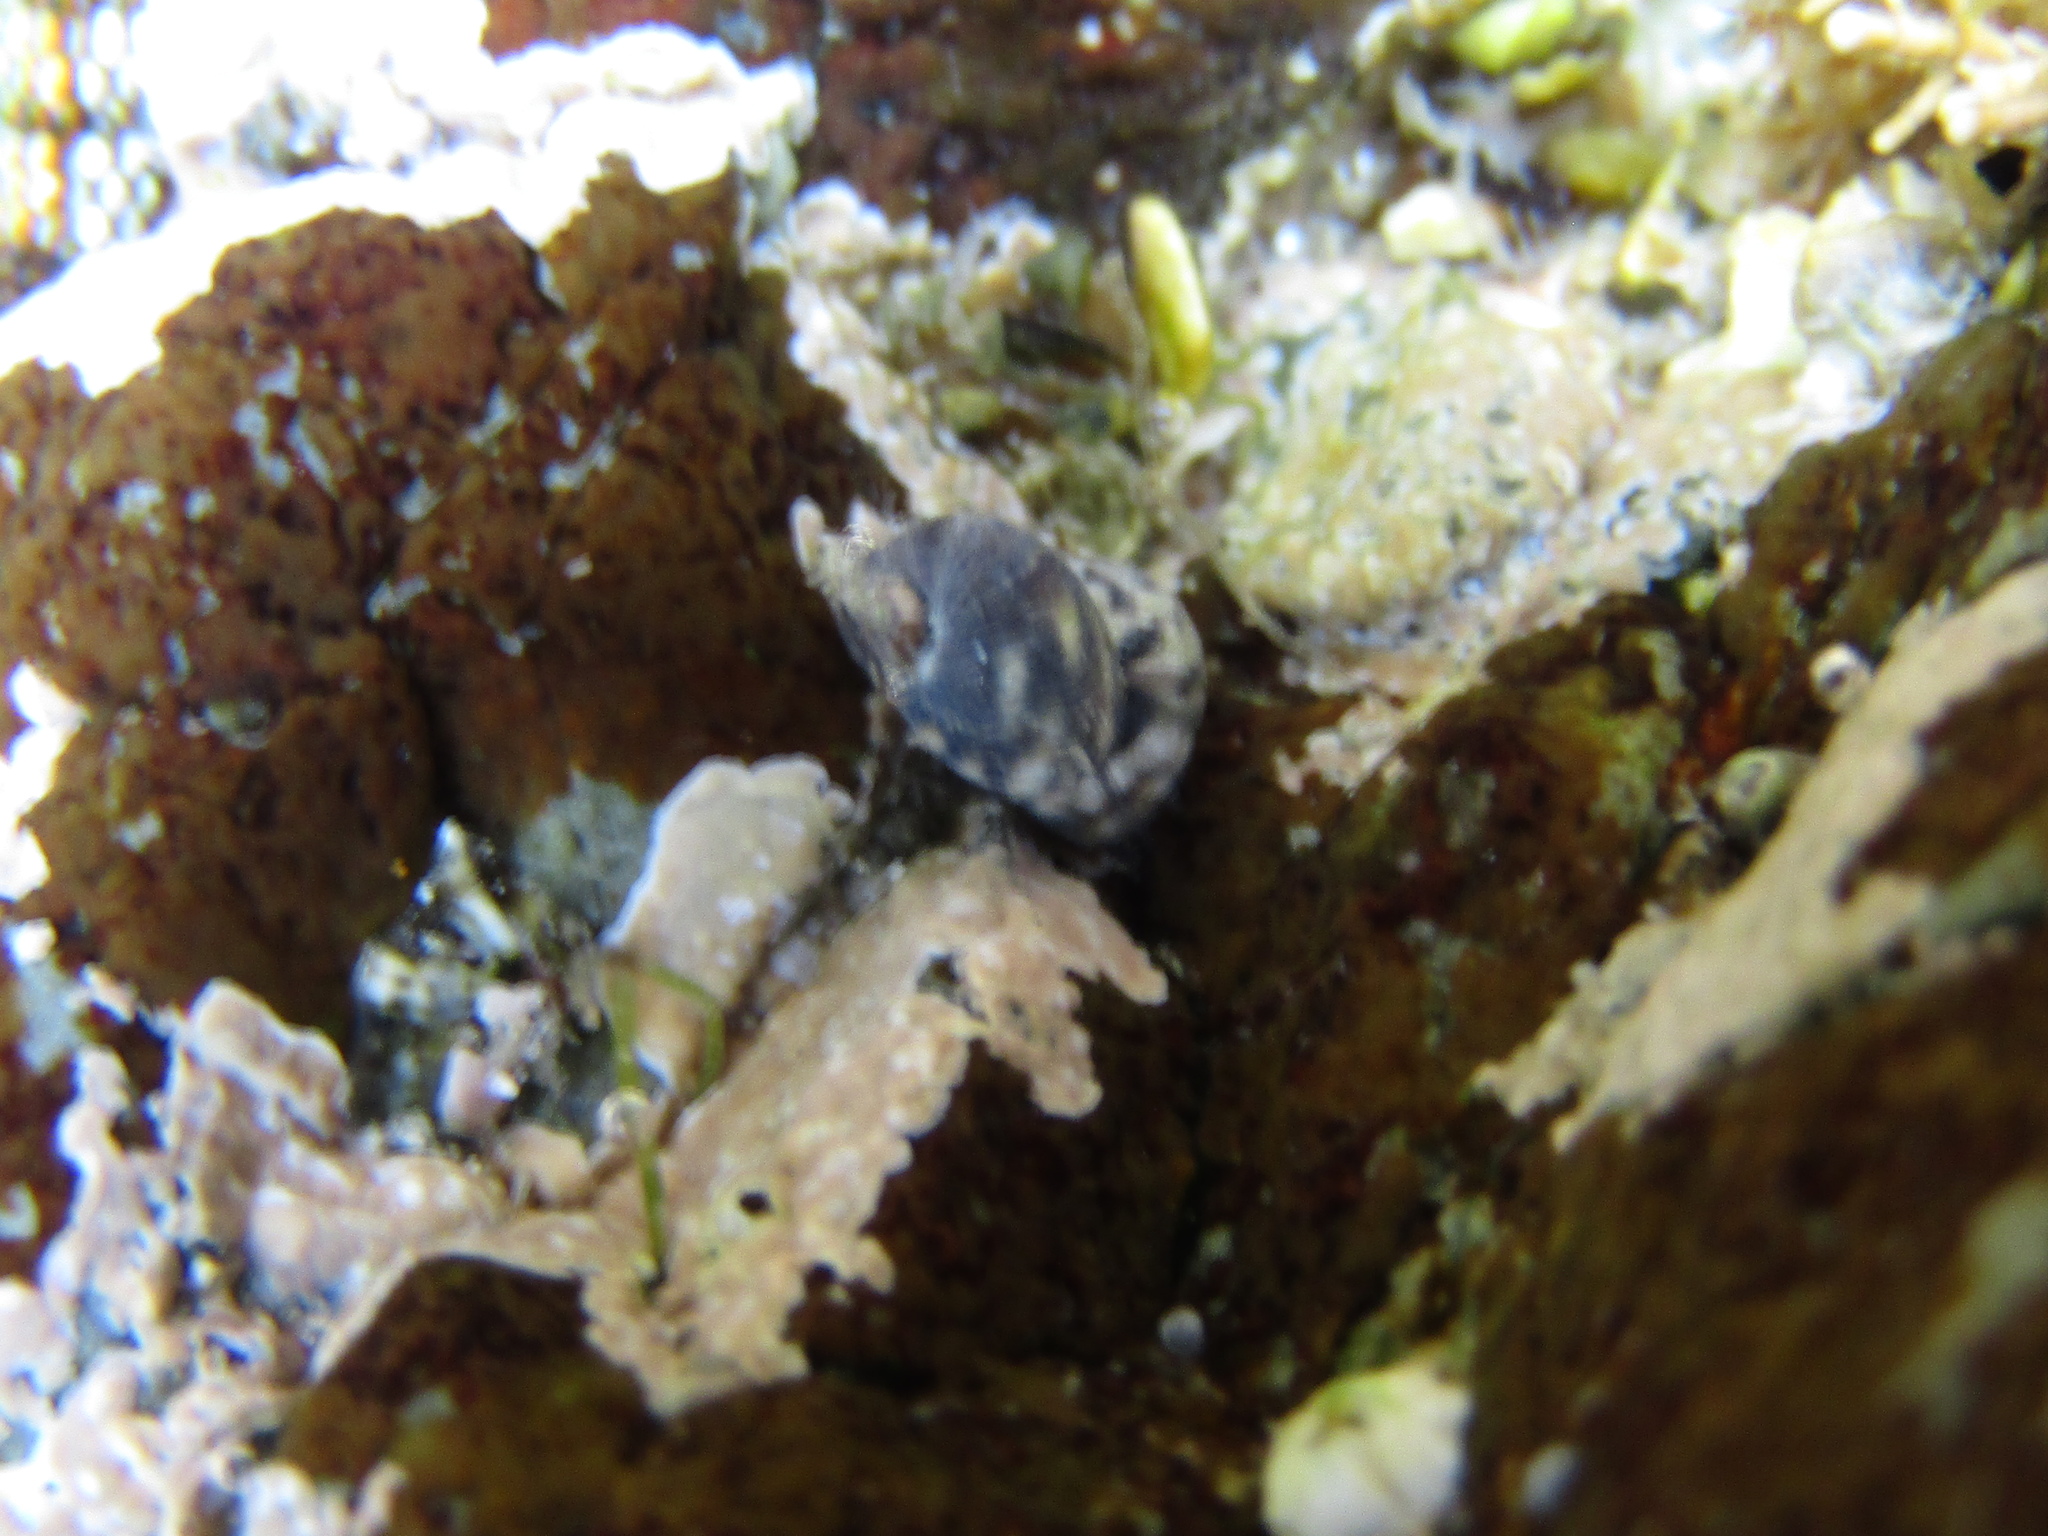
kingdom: Animalia
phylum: Mollusca
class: Gastropoda
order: Trochida
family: Trochidae
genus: Fossarina
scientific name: Fossarina rimata
